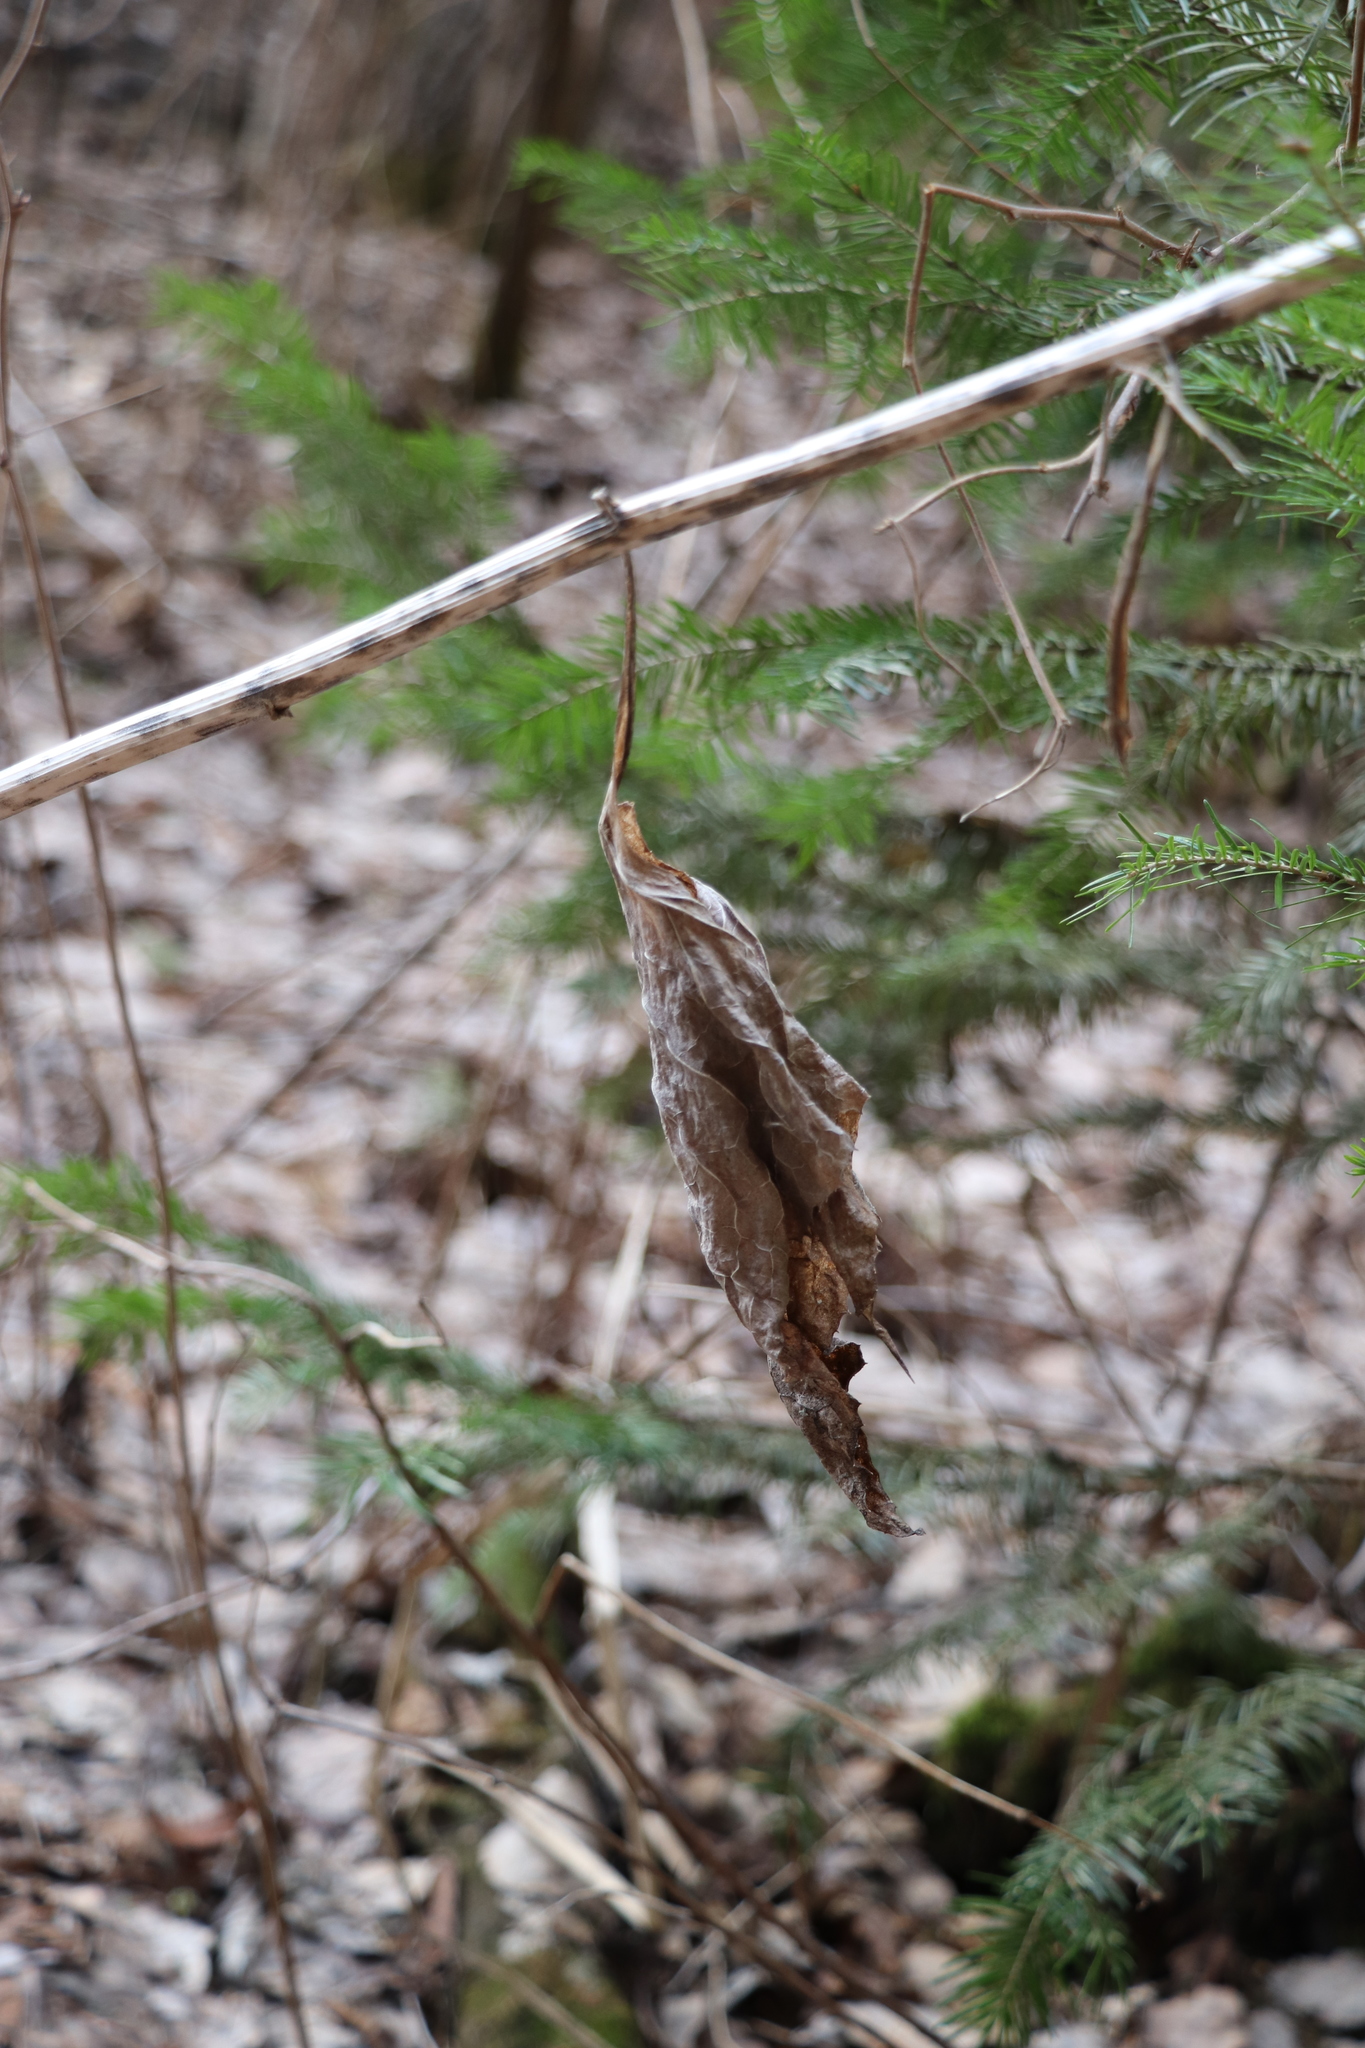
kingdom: Plantae
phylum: Tracheophyta
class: Magnoliopsida
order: Asterales
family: Asteraceae
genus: Parasenecio
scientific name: Parasenecio hastatus
